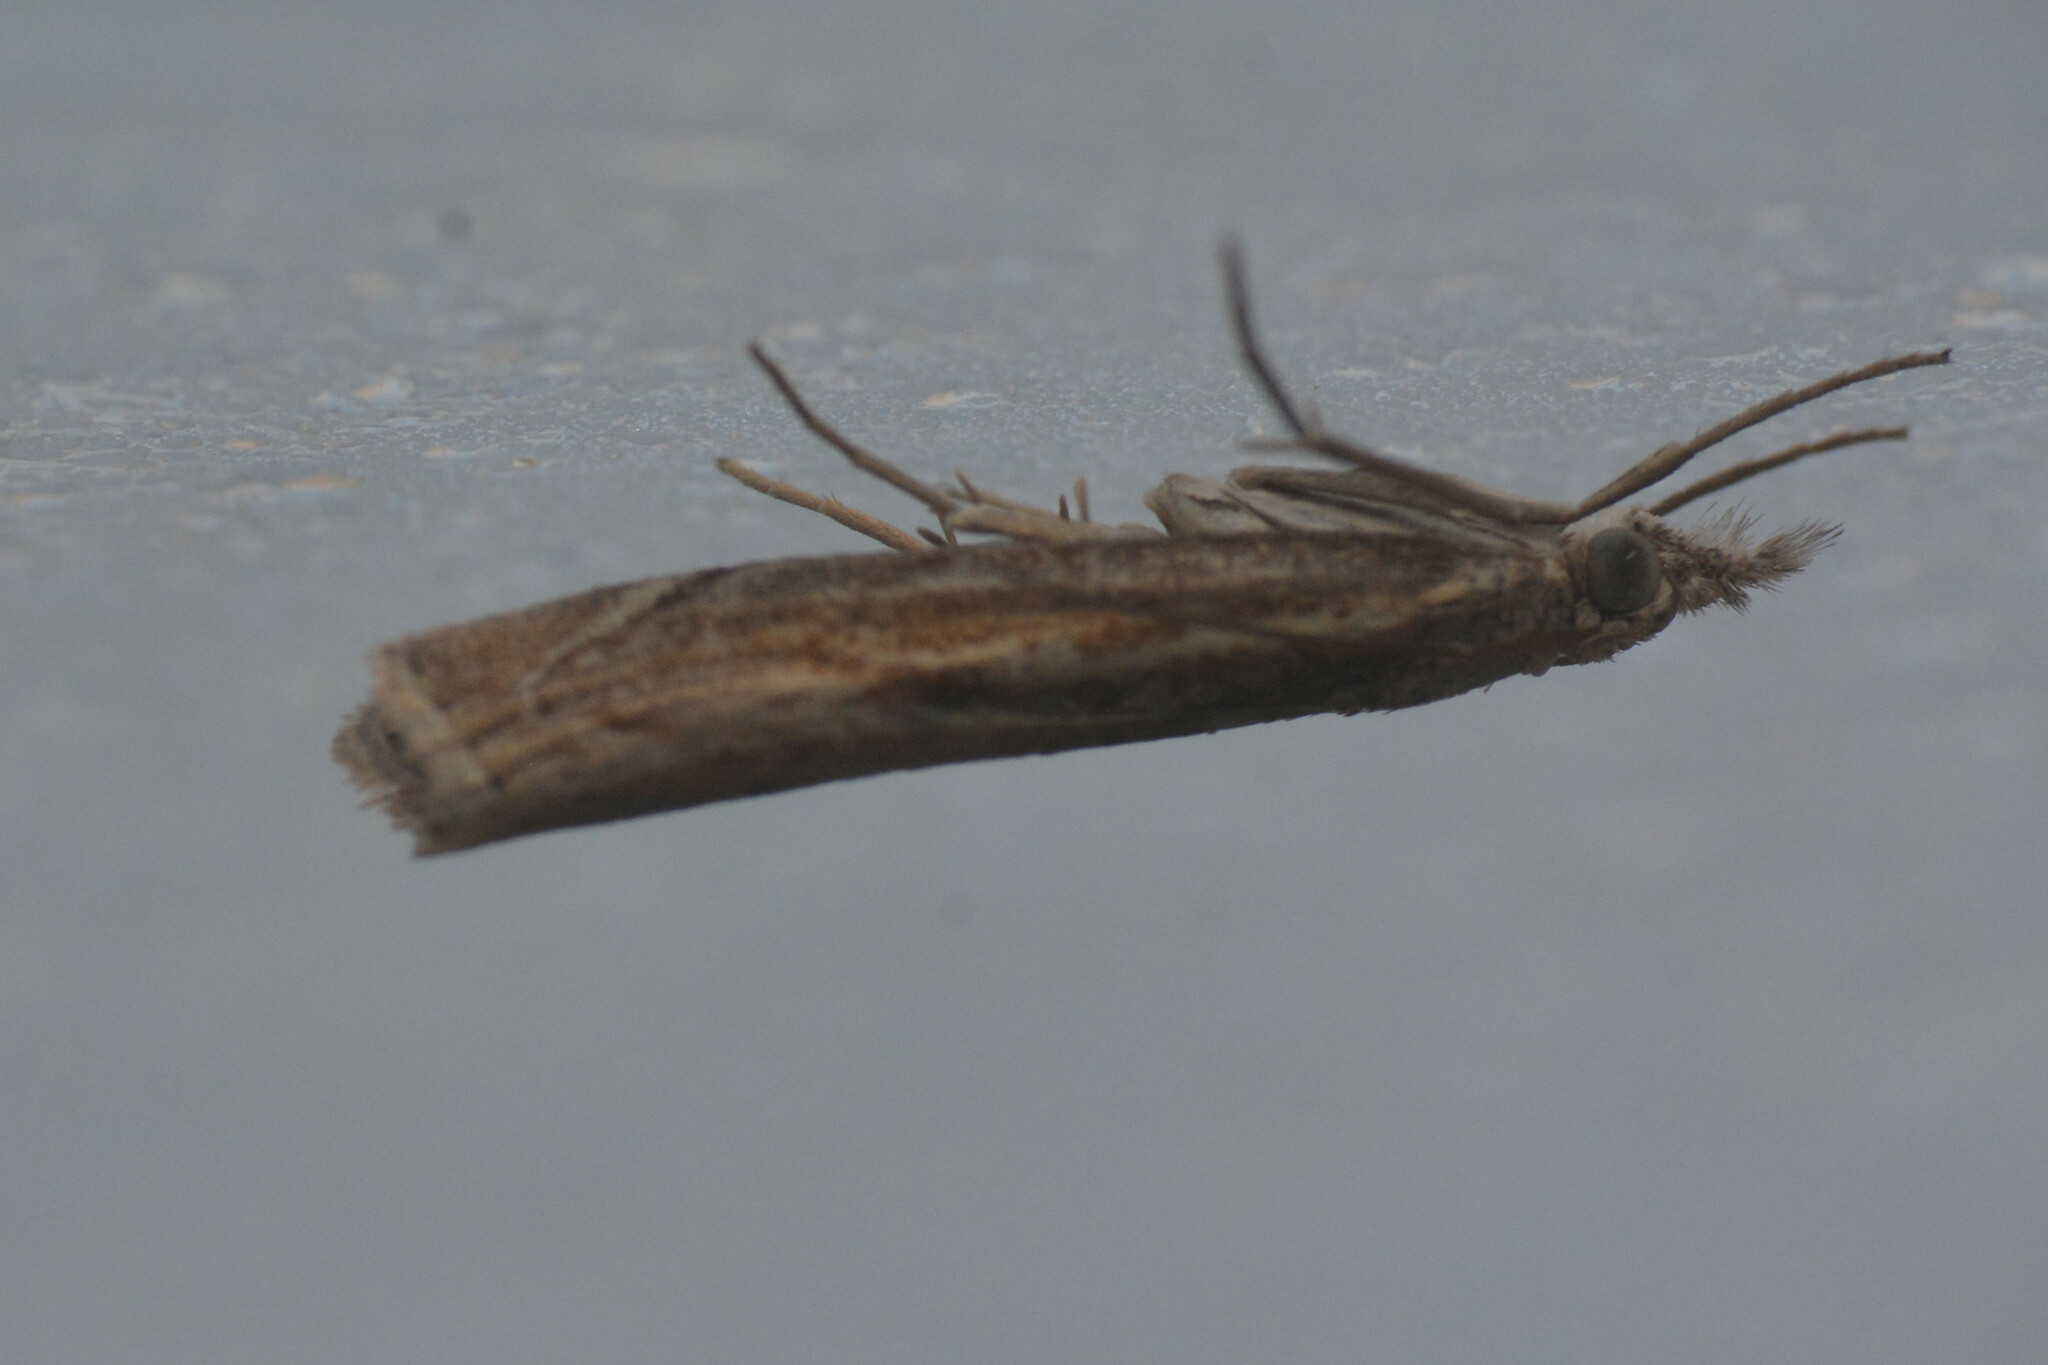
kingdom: Animalia
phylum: Arthropoda
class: Insecta
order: Lepidoptera
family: Crambidae
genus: Agriphila
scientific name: Agriphila geniculea
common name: Elbow-stripe grass-veneer
